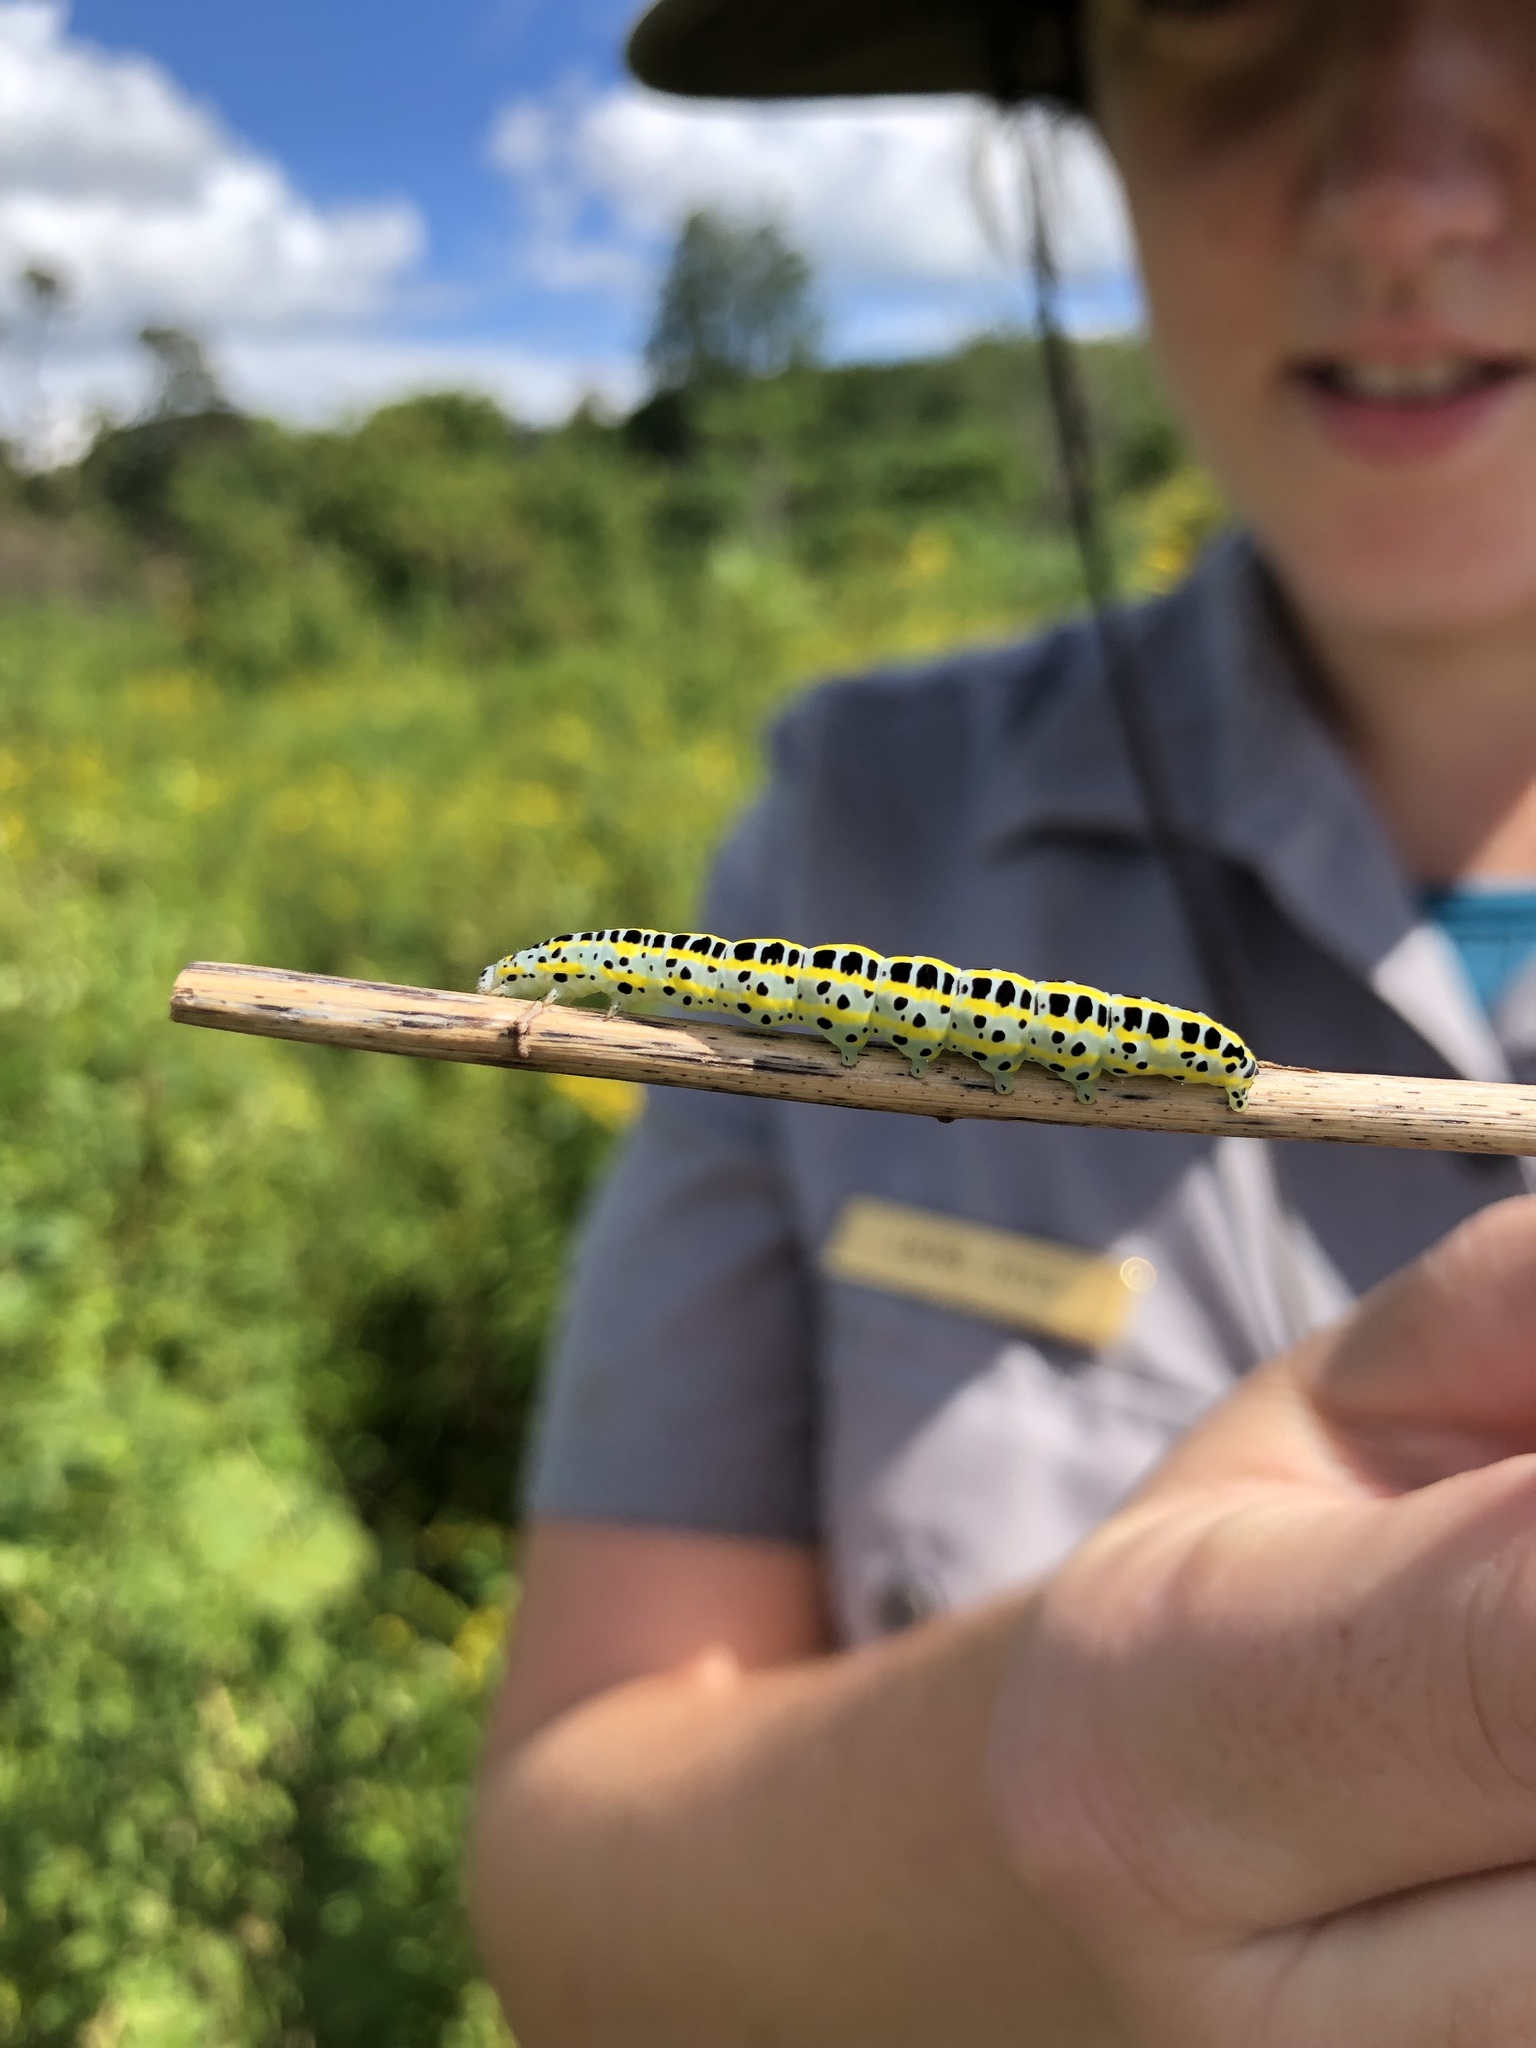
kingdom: Animalia
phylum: Arthropoda
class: Insecta
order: Lepidoptera
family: Noctuidae
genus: Calophasia
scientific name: Calophasia lunula
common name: Toadflax brocade
